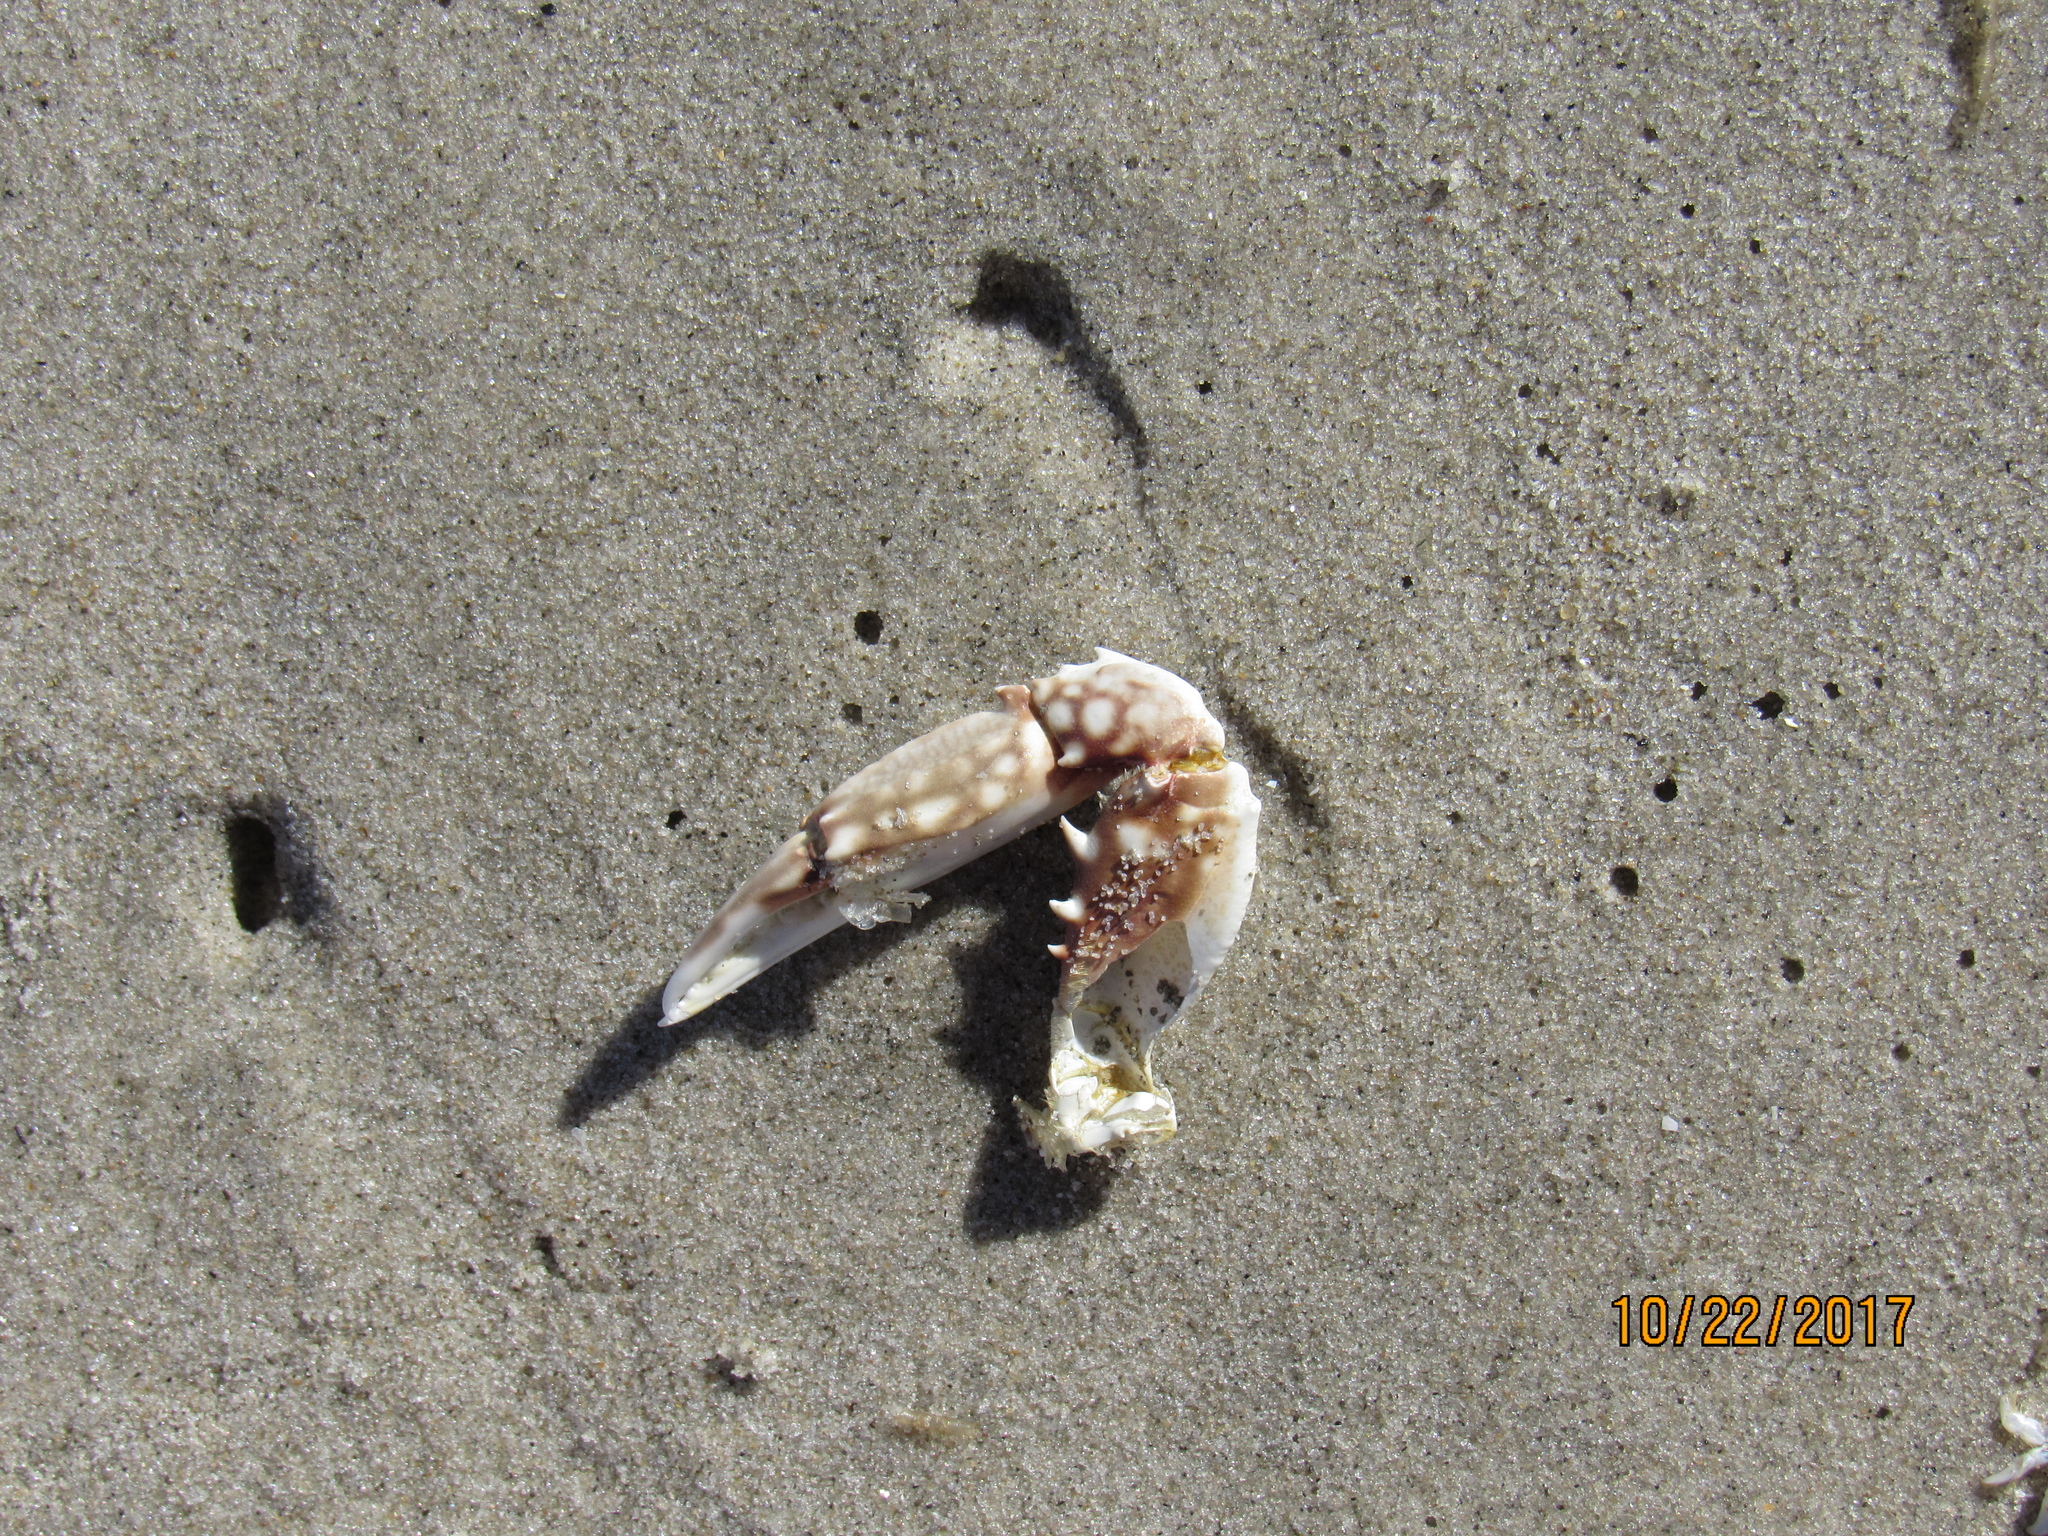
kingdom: Animalia
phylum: Arthropoda
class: Malacostraca
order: Decapoda
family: Portunidae
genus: Arenaeus
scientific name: Arenaeus cribrarius
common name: Speckled crab
